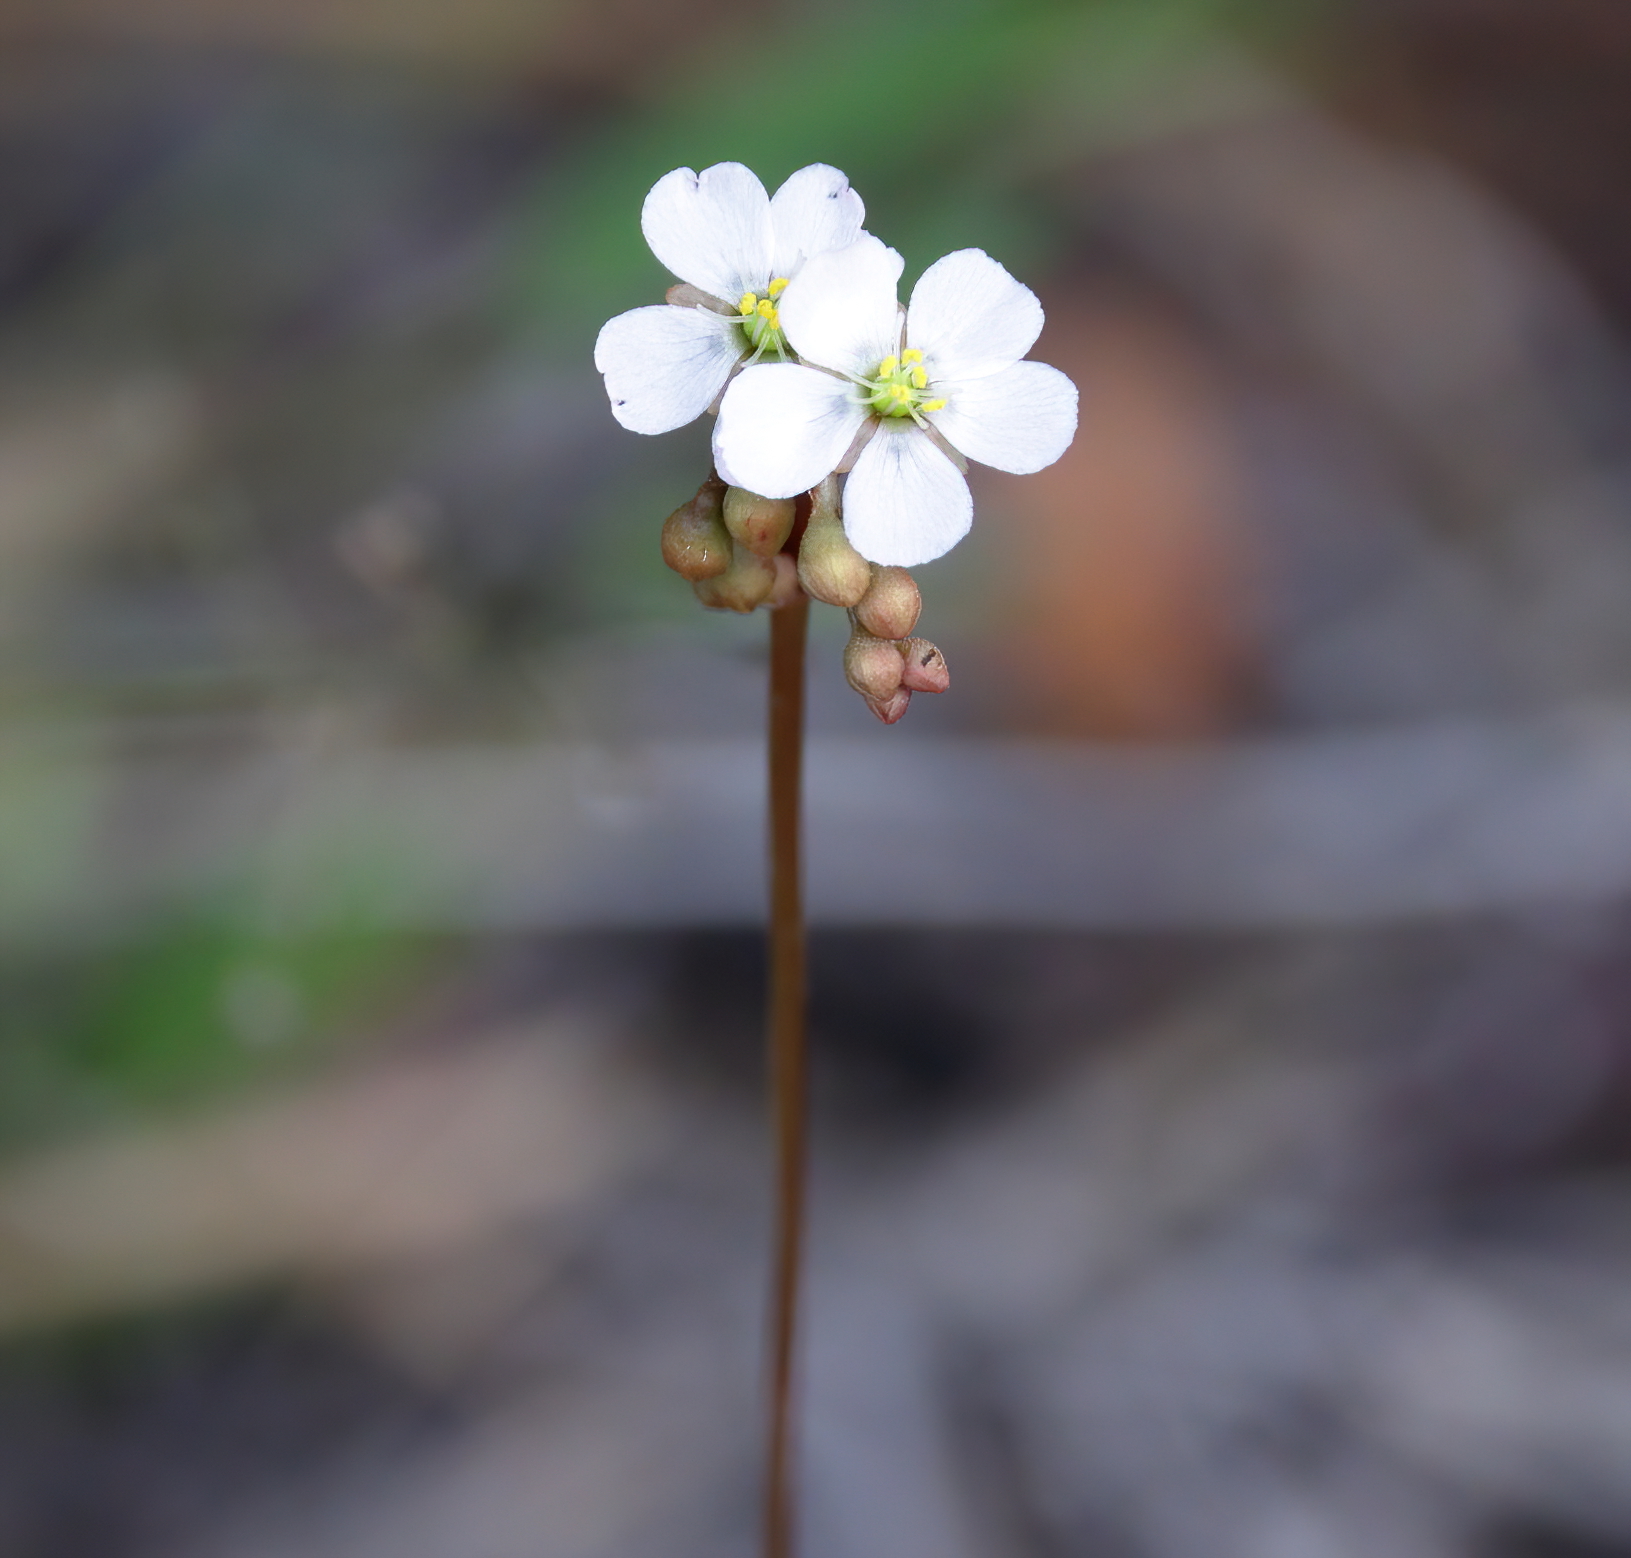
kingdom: Plantae
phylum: Tracheophyta
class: Magnoliopsida
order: Caryophyllales
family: Droseraceae
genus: Drosera
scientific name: Drosera capillaris
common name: Pink sundew
